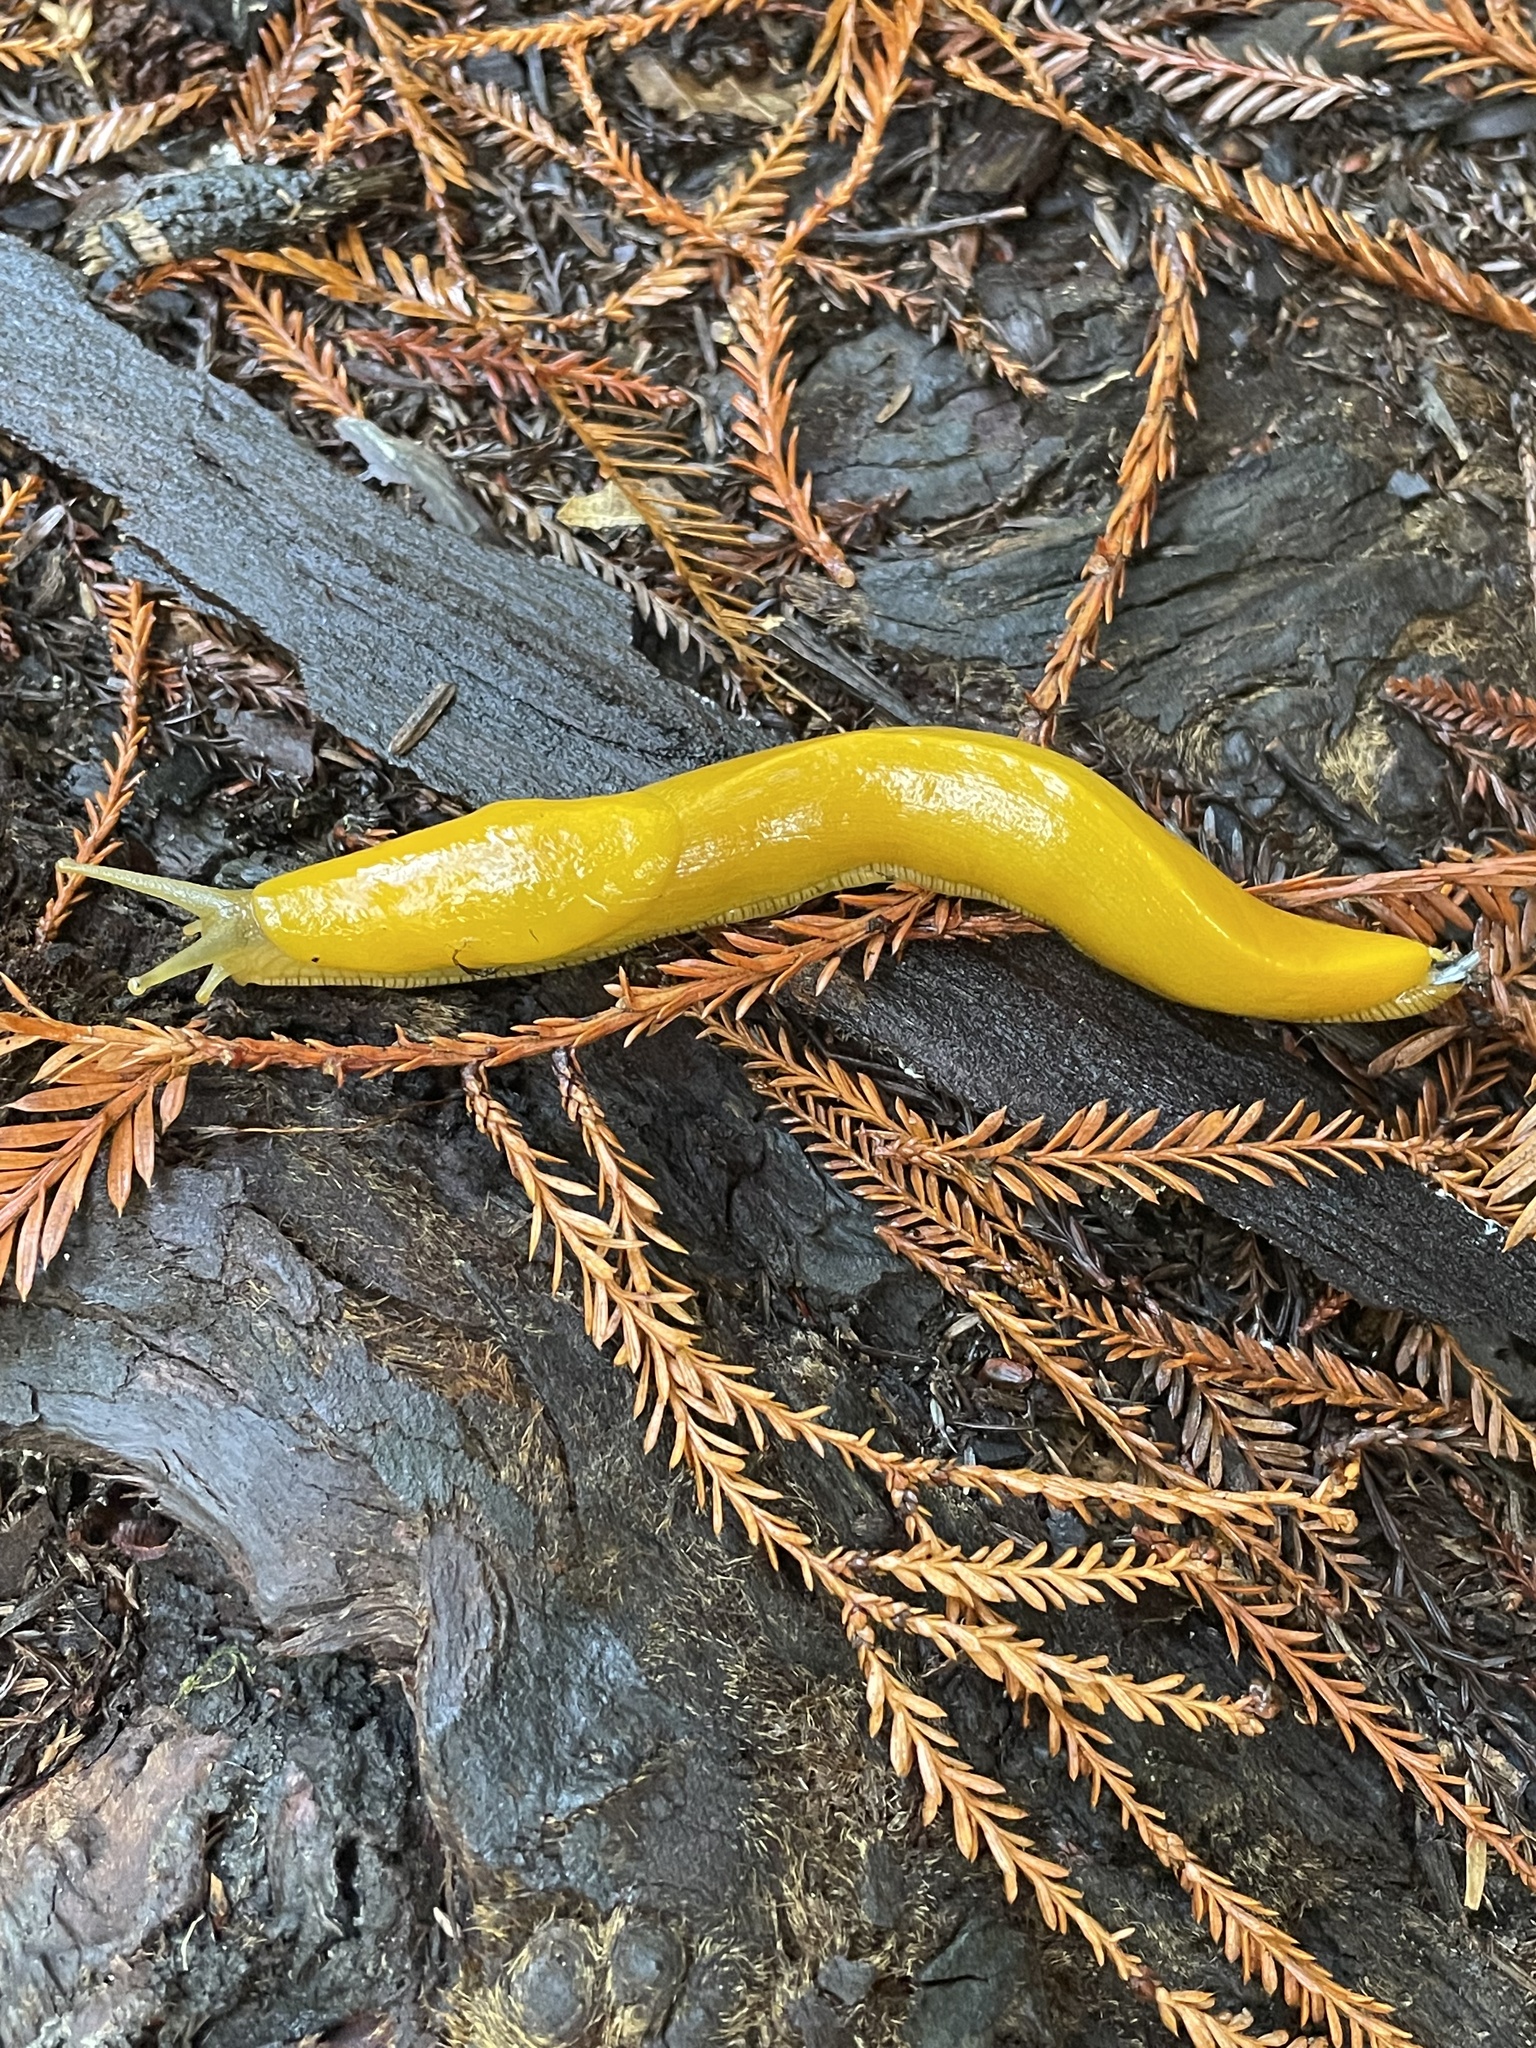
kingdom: Animalia
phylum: Mollusca
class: Gastropoda
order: Stylommatophora
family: Ariolimacidae
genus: Ariolimax
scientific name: Ariolimax californicus
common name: California banana slug
